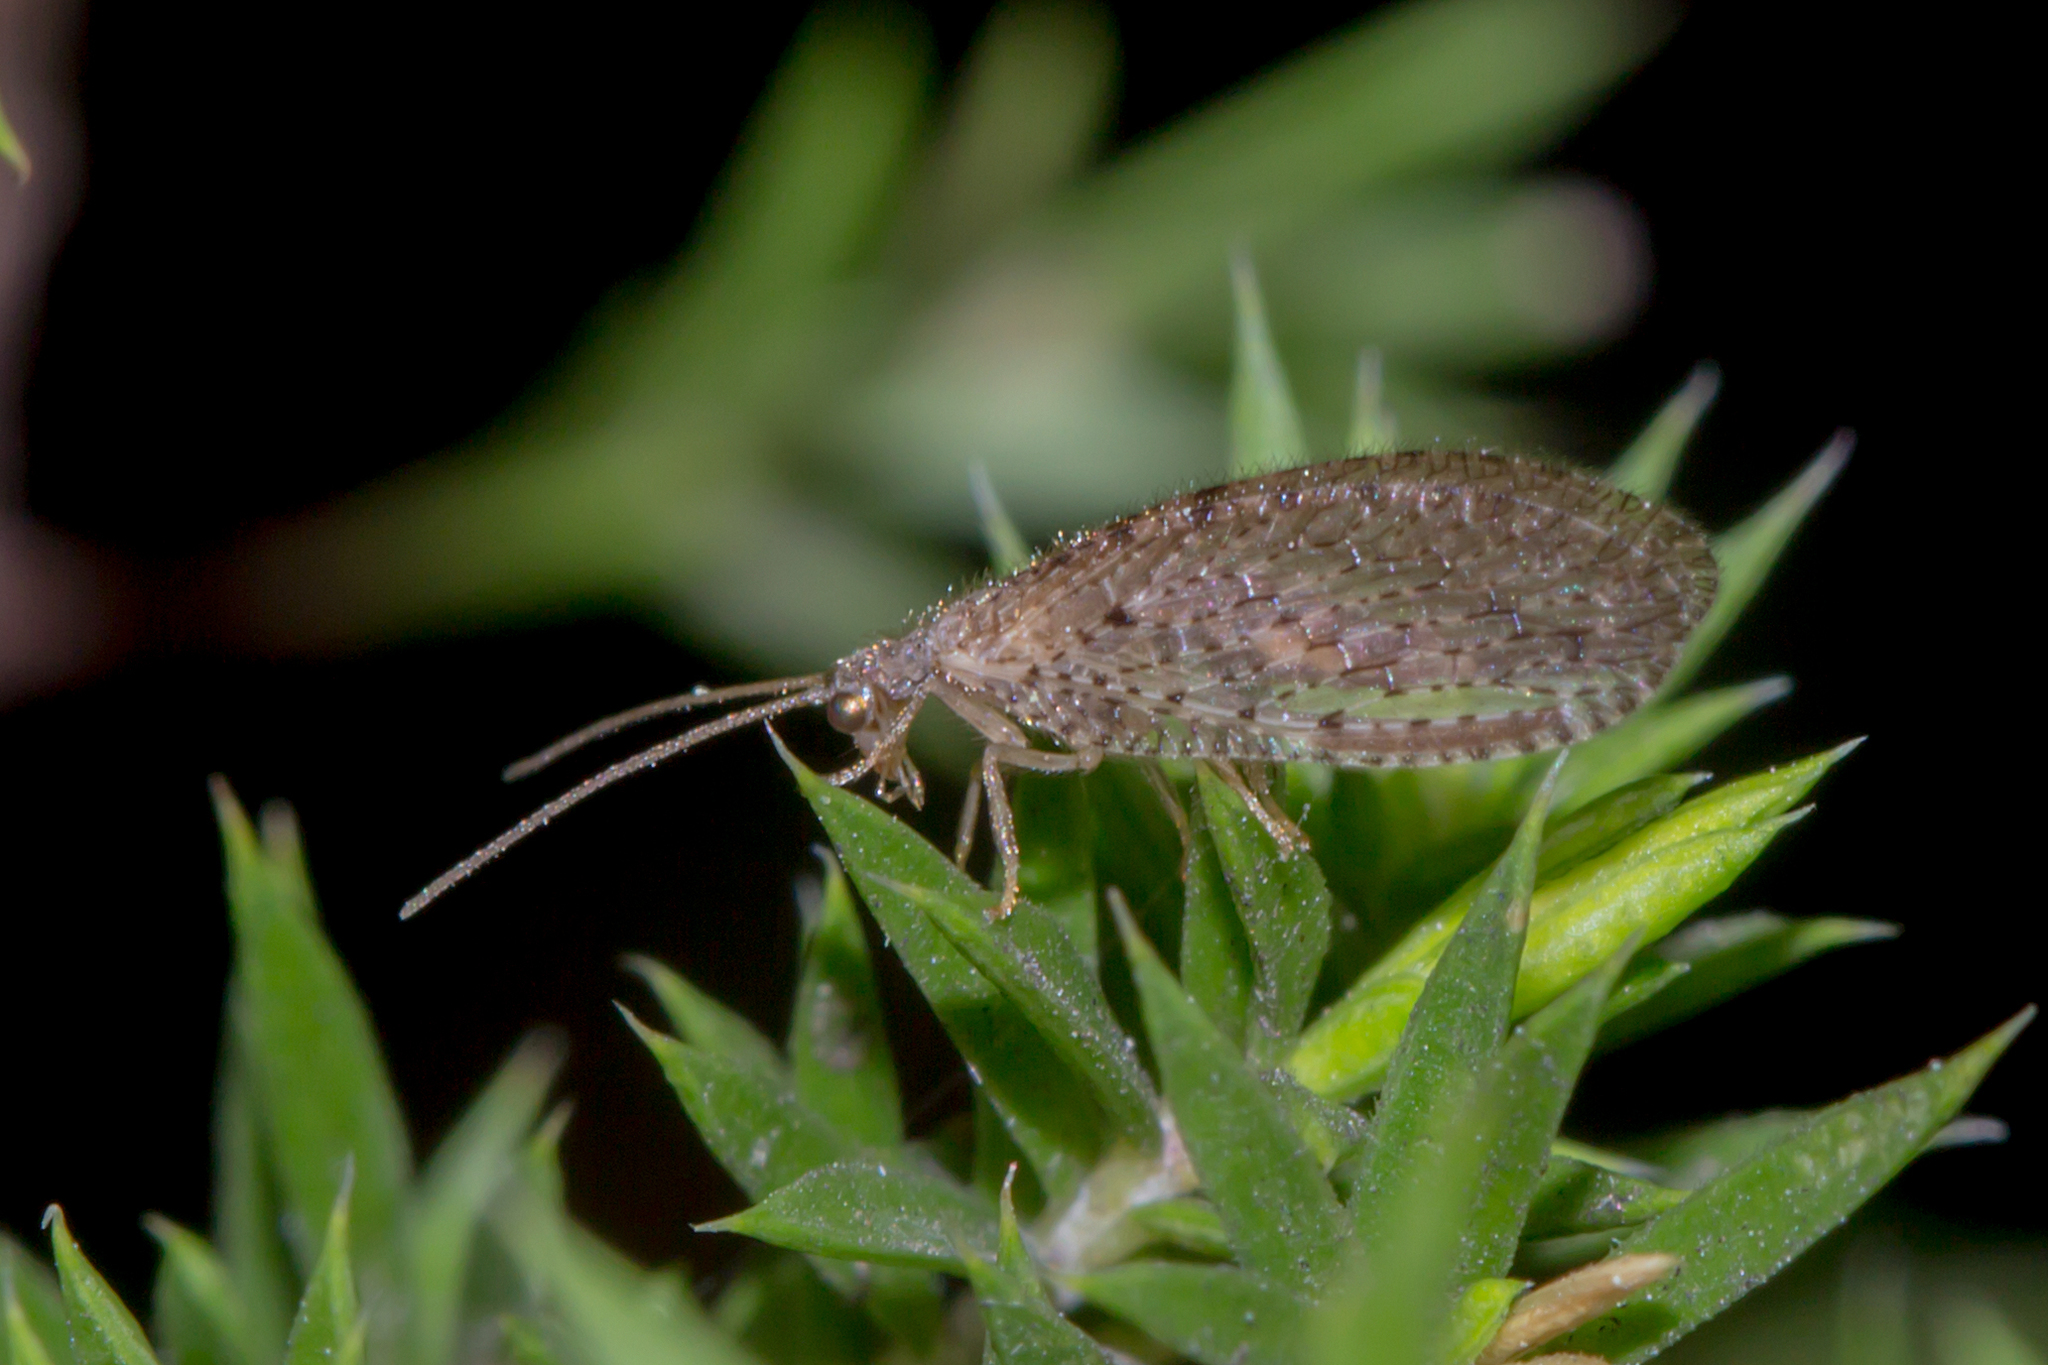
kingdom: Animalia
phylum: Arthropoda
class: Insecta
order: Neuroptera
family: Hemerobiidae
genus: Micromus
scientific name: Micromus tasmaniae
